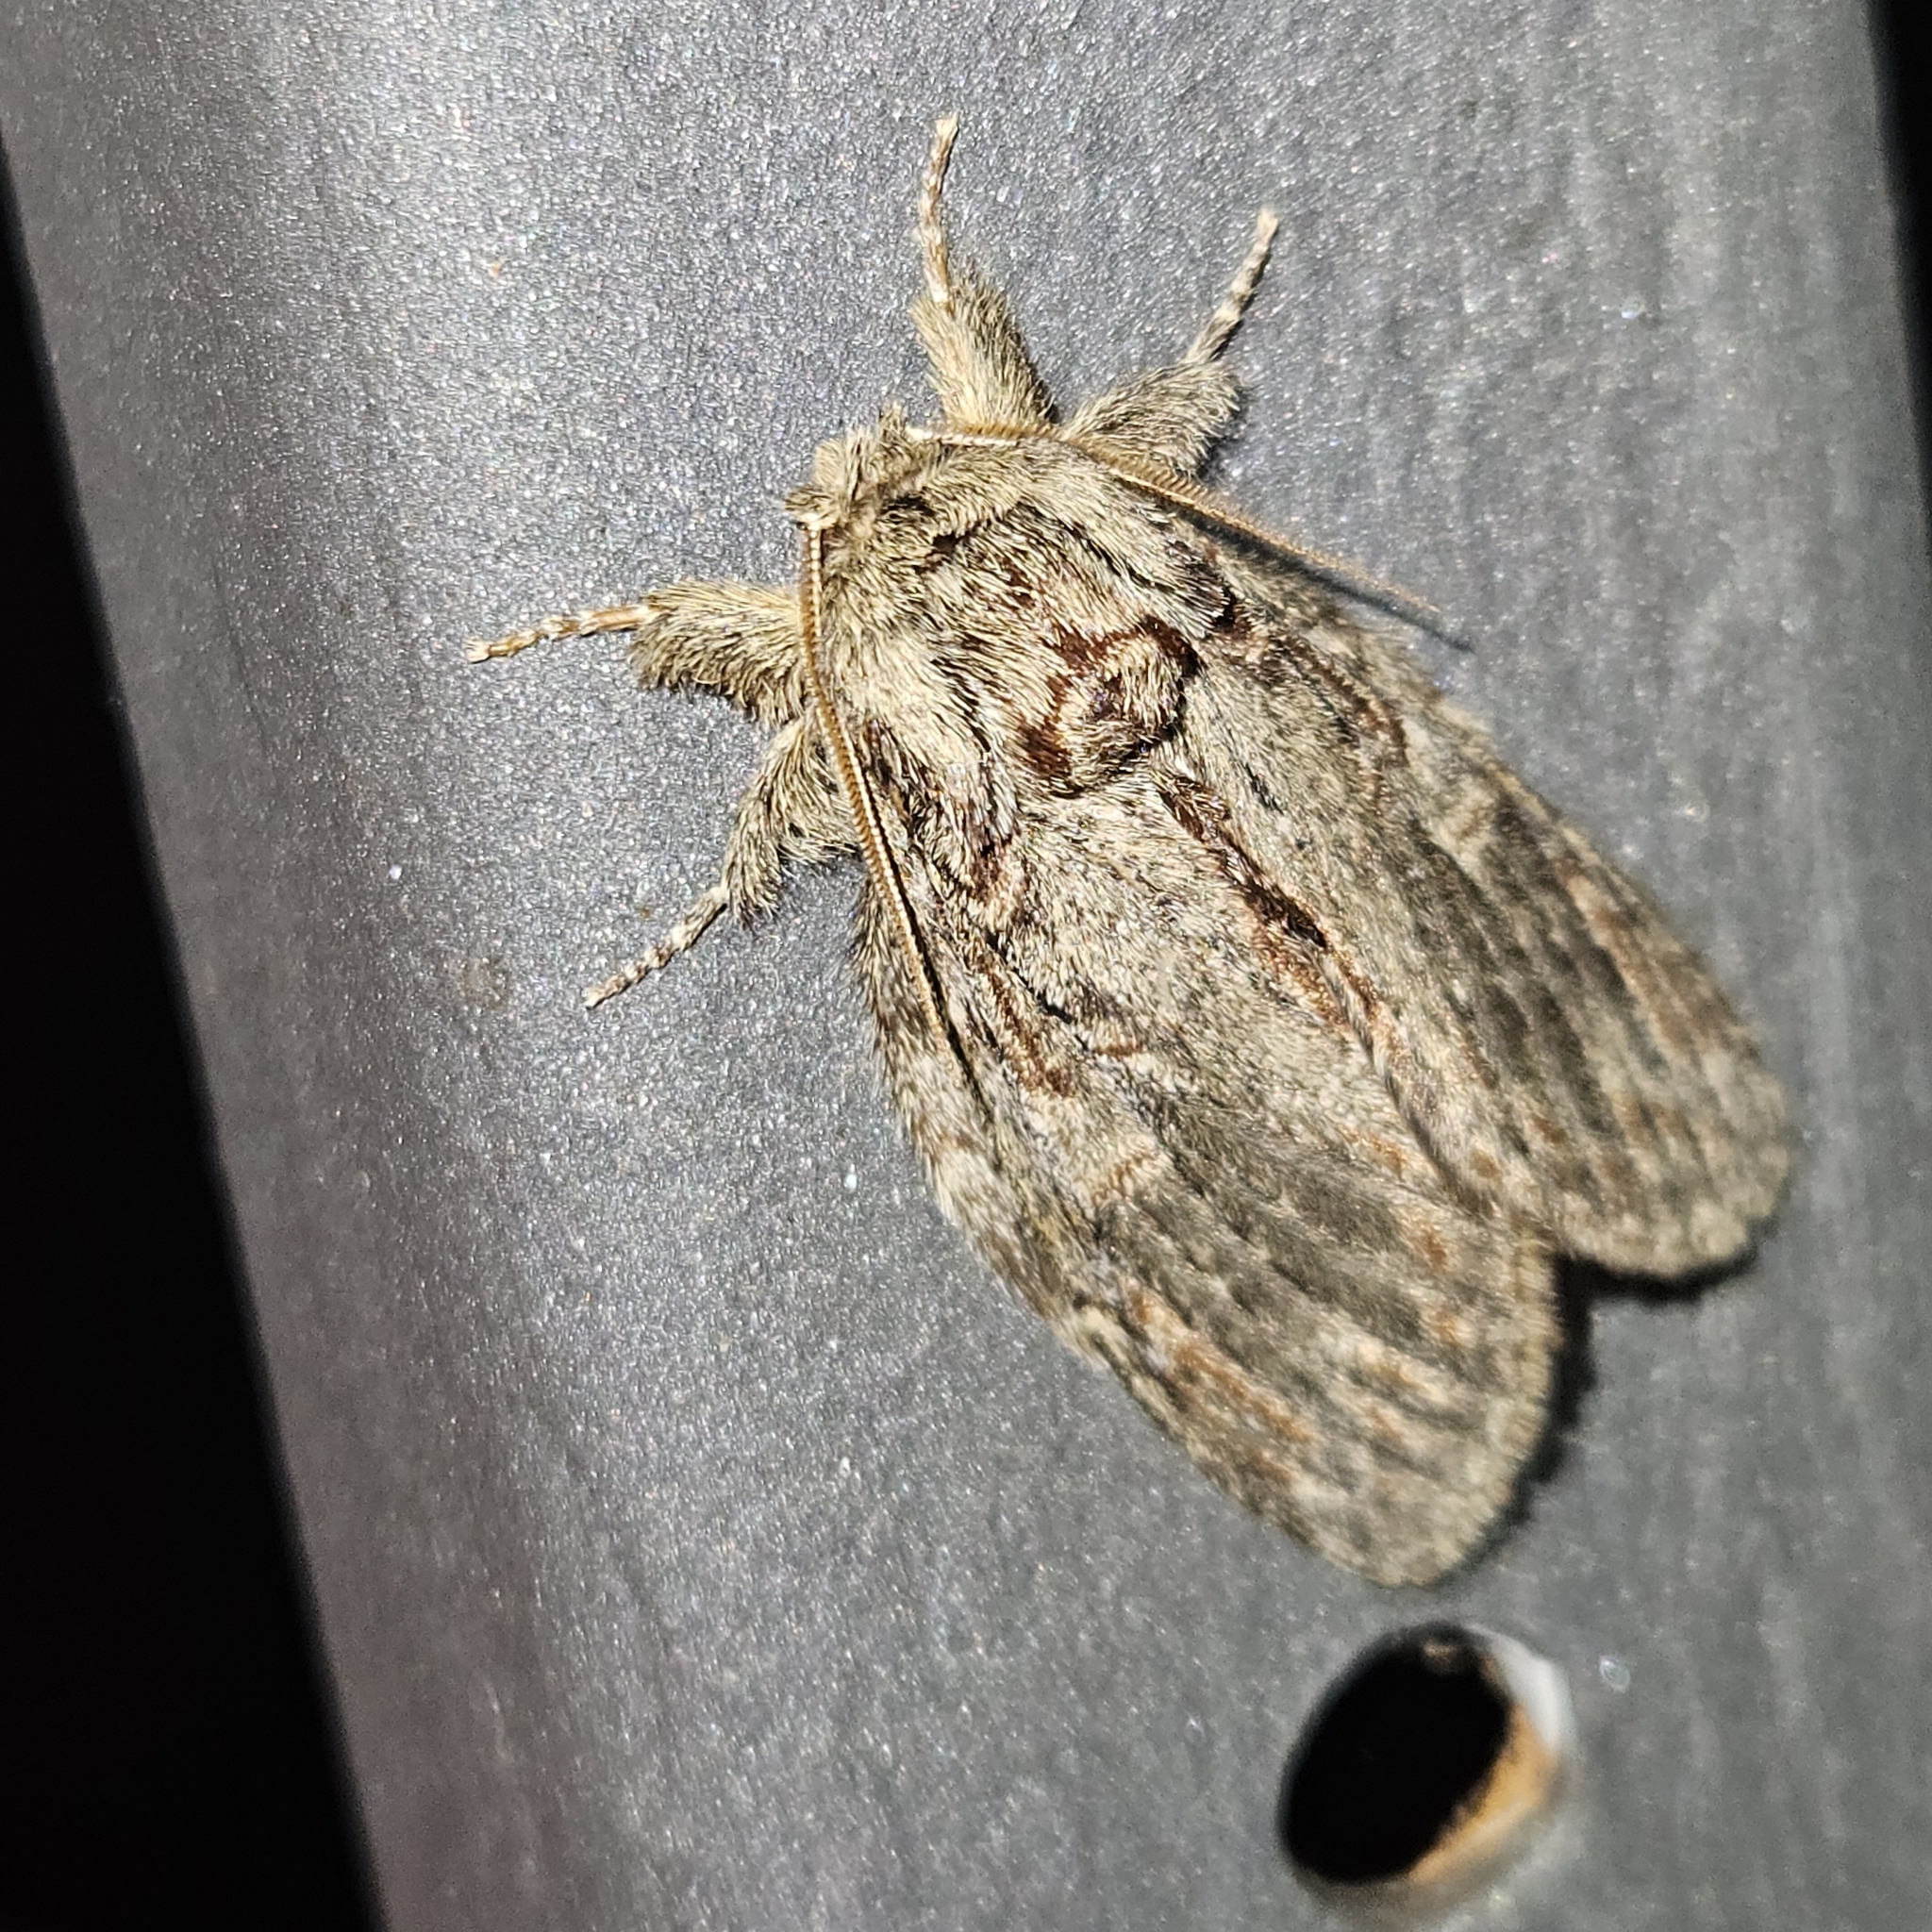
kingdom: Animalia
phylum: Arthropoda
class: Insecta
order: Lepidoptera
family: Notodontidae
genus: Peridea
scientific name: Peridea anceps
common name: Great prominent
